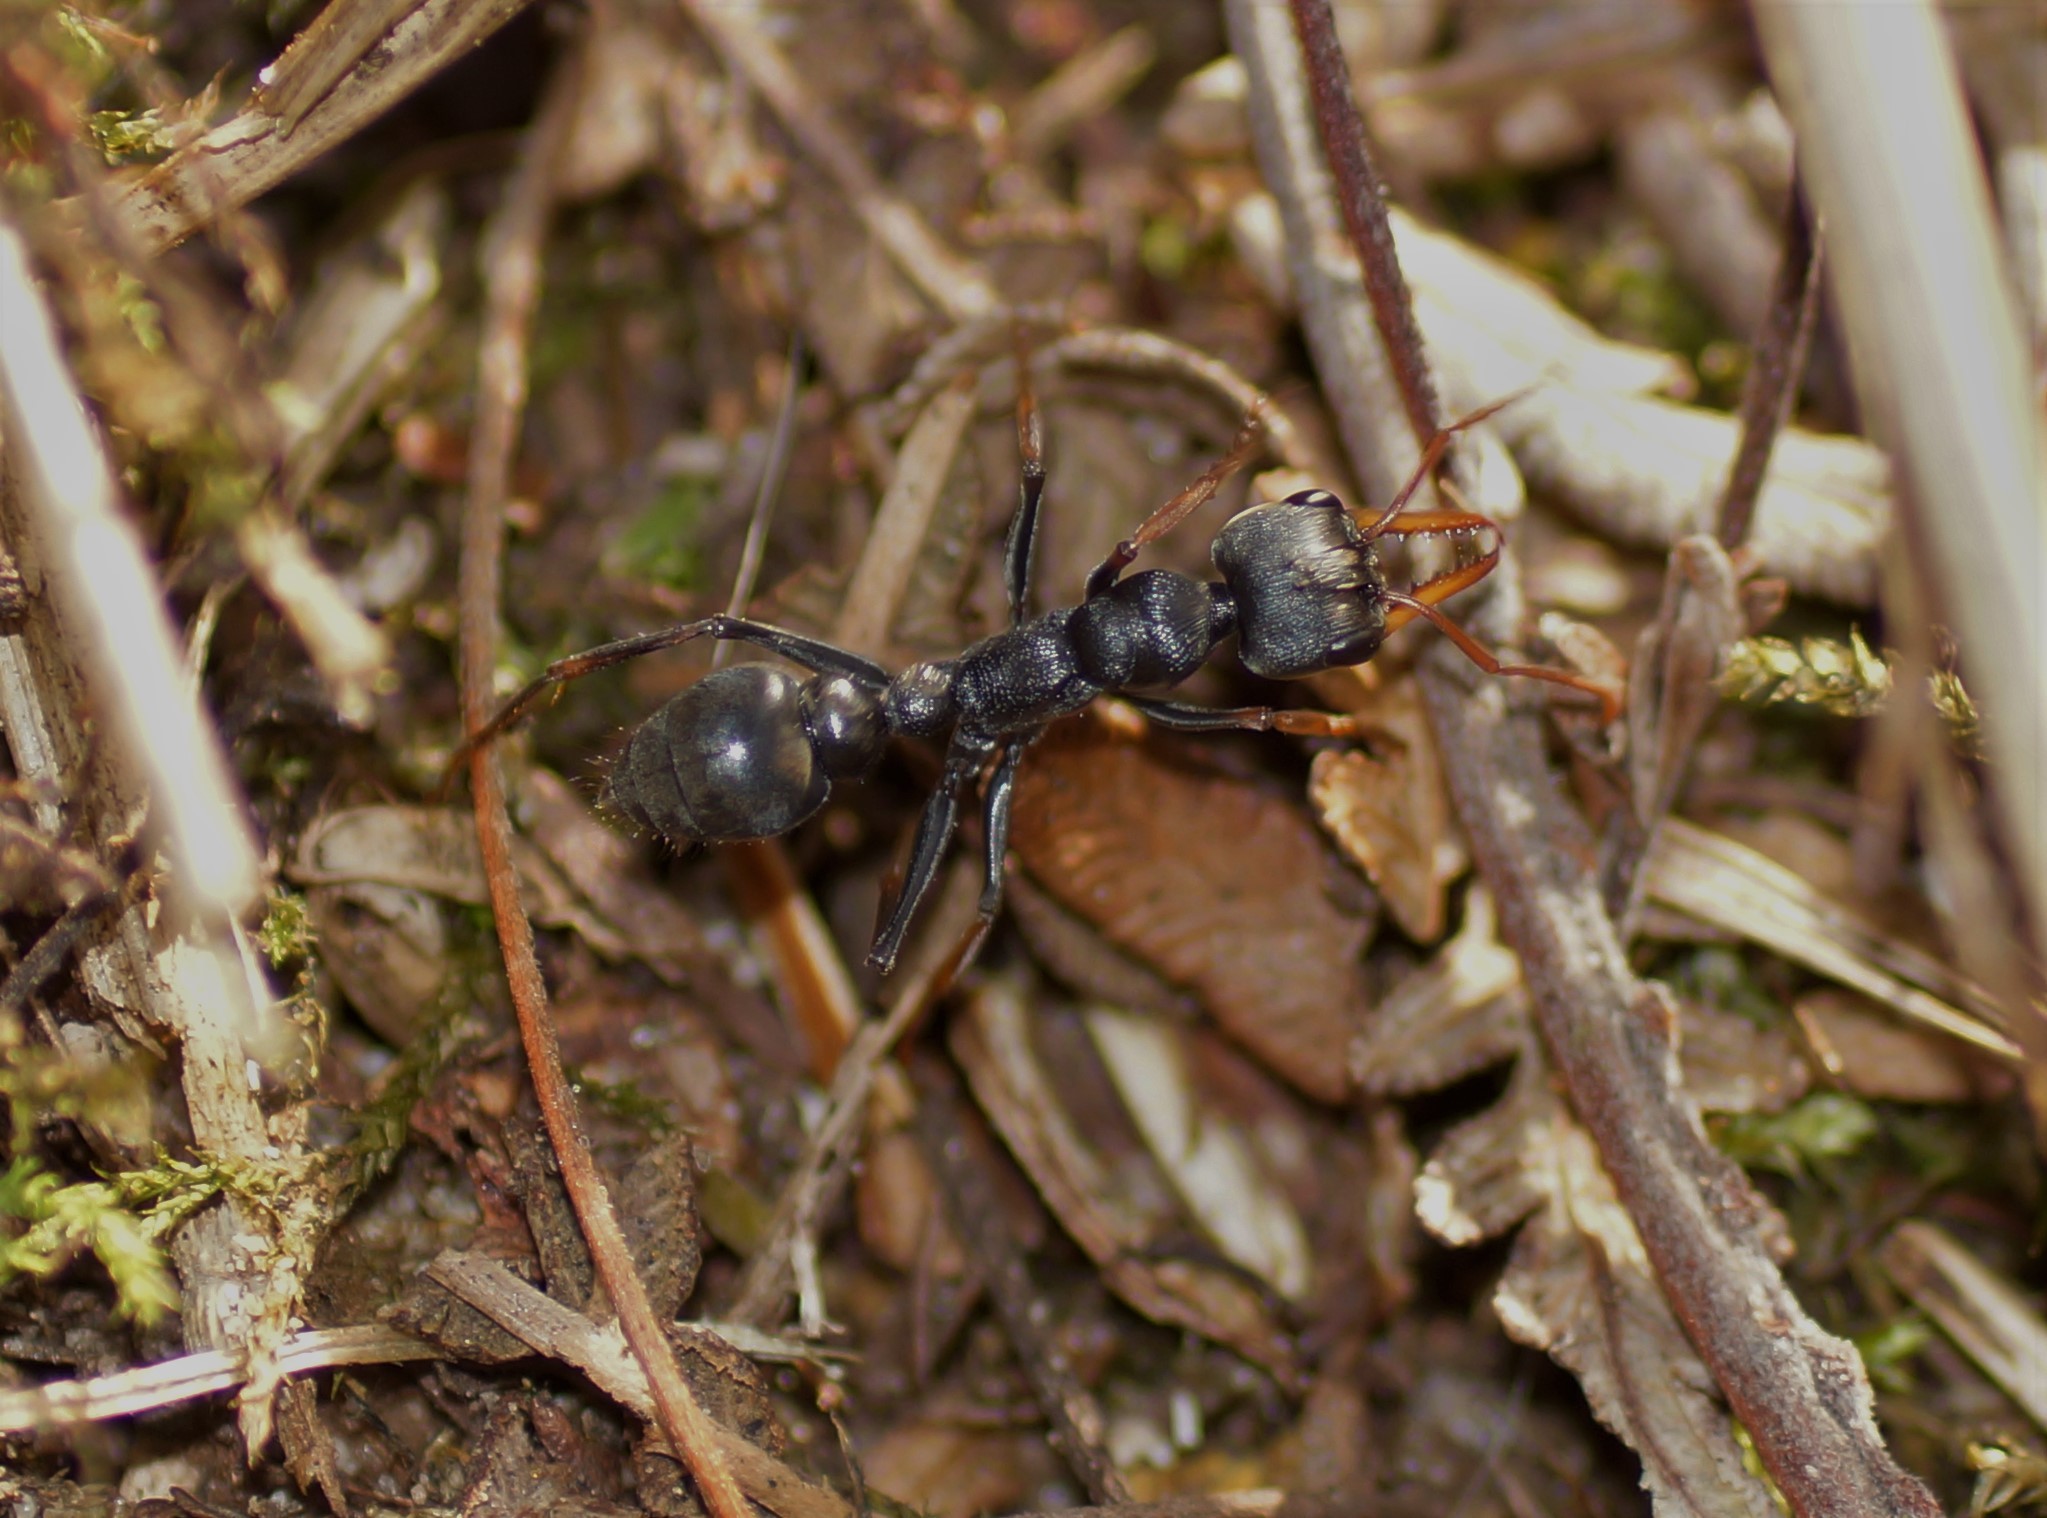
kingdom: Animalia
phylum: Arthropoda
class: Insecta
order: Hymenoptera
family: Formicidae
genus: Myrmecia
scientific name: Myrmecia pilosula
